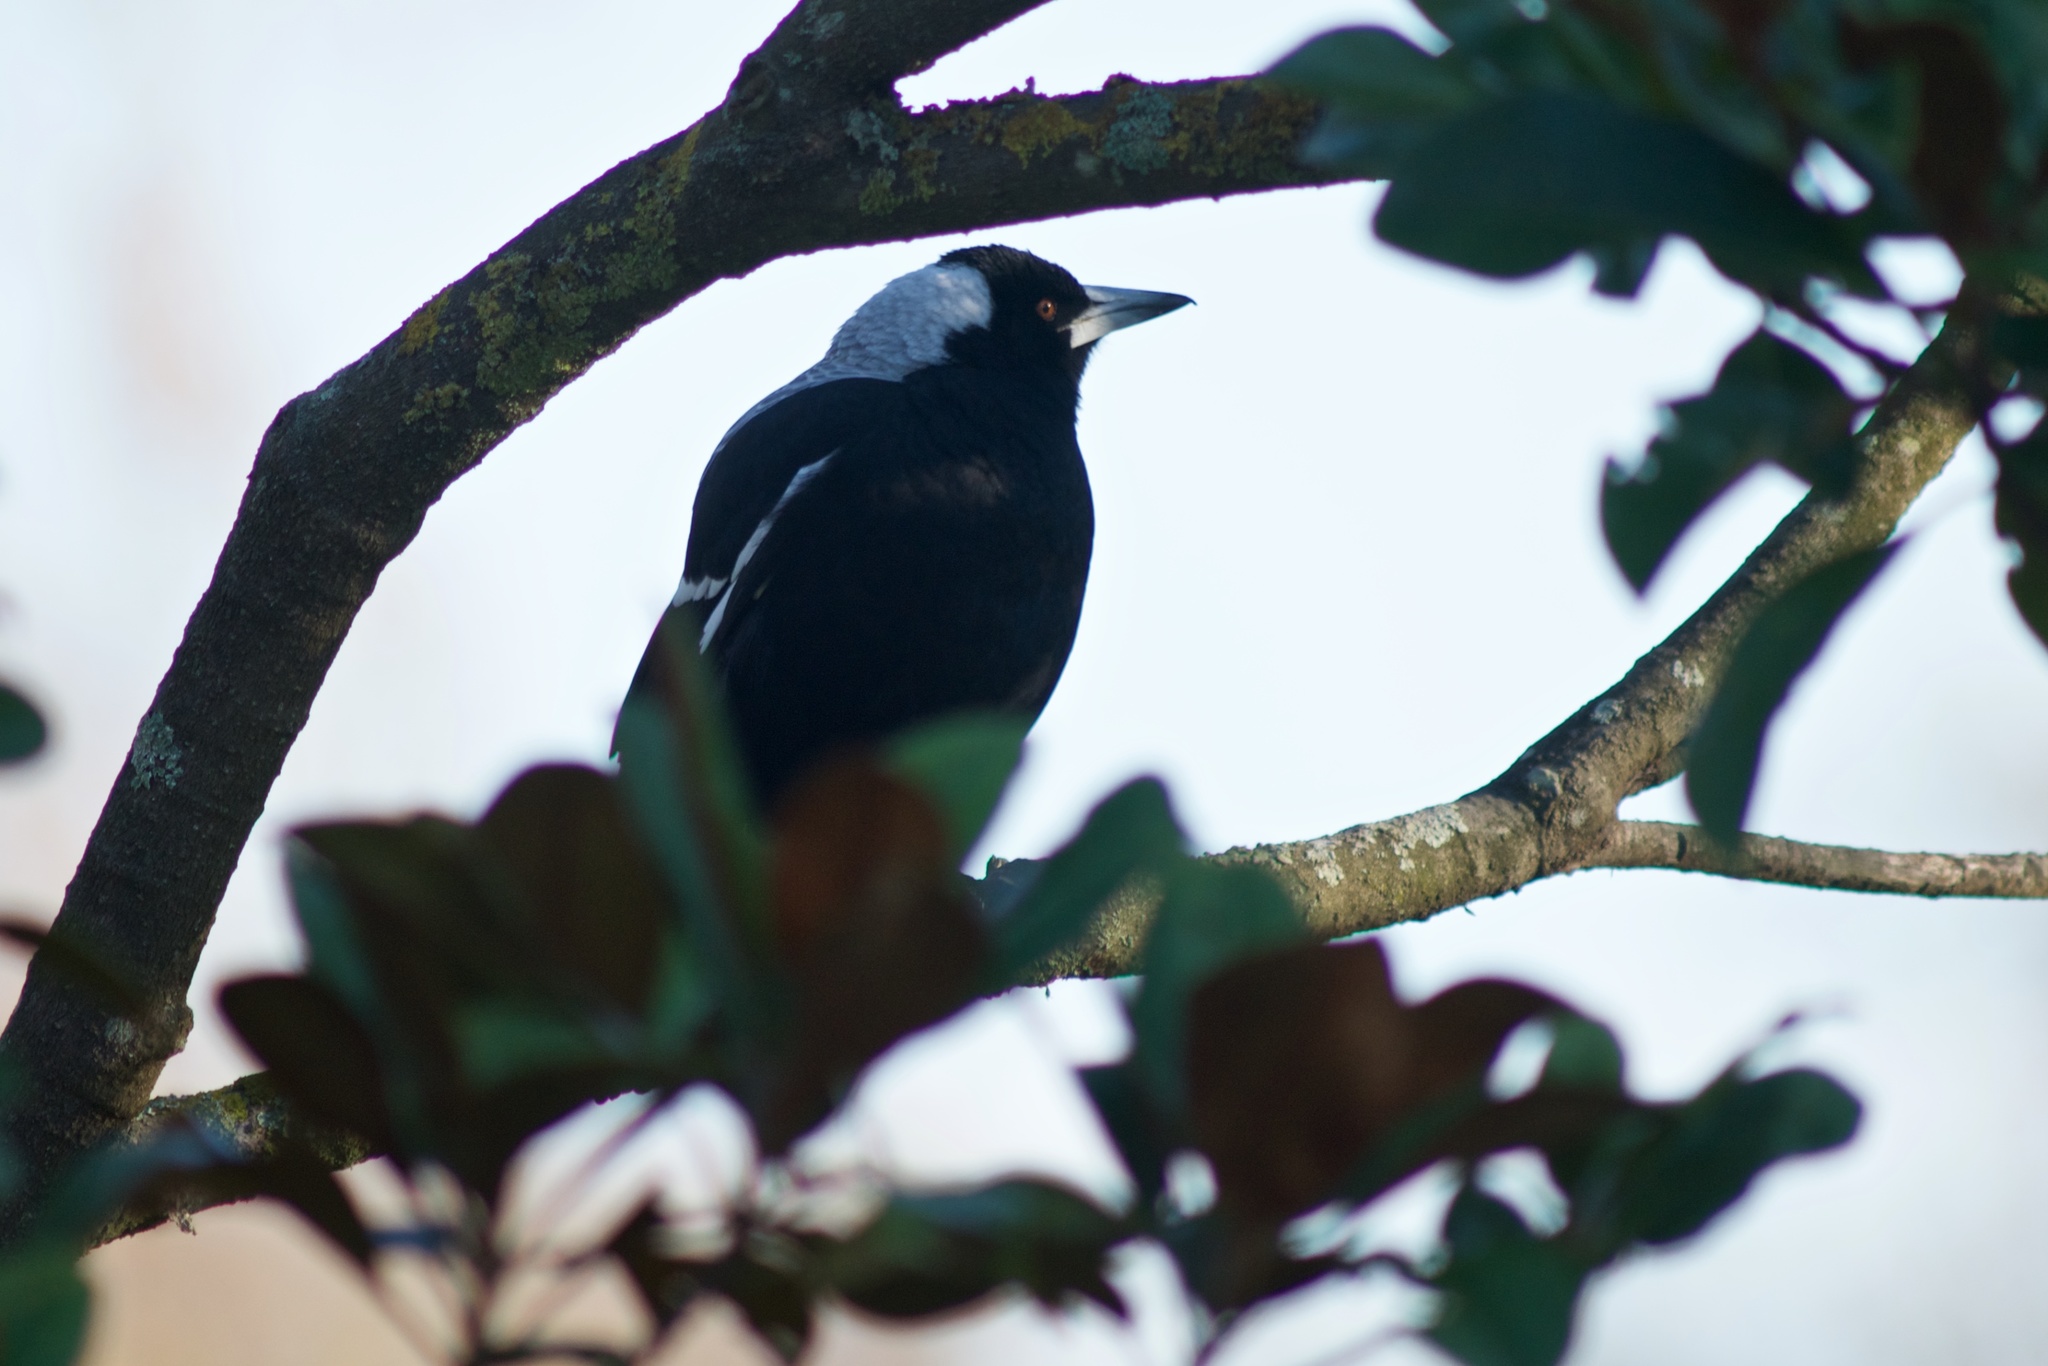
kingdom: Animalia
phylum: Chordata
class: Aves
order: Passeriformes
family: Cracticidae
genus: Gymnorhina
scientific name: Gymnorhina tibicen
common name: Australian magpie
